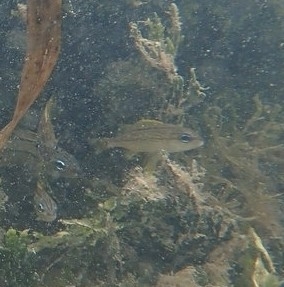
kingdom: Animalia
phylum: Chordata
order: Perciformes
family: Haemulidae
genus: Haemulon
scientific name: Haemulon flavolineatum
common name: French grunt
